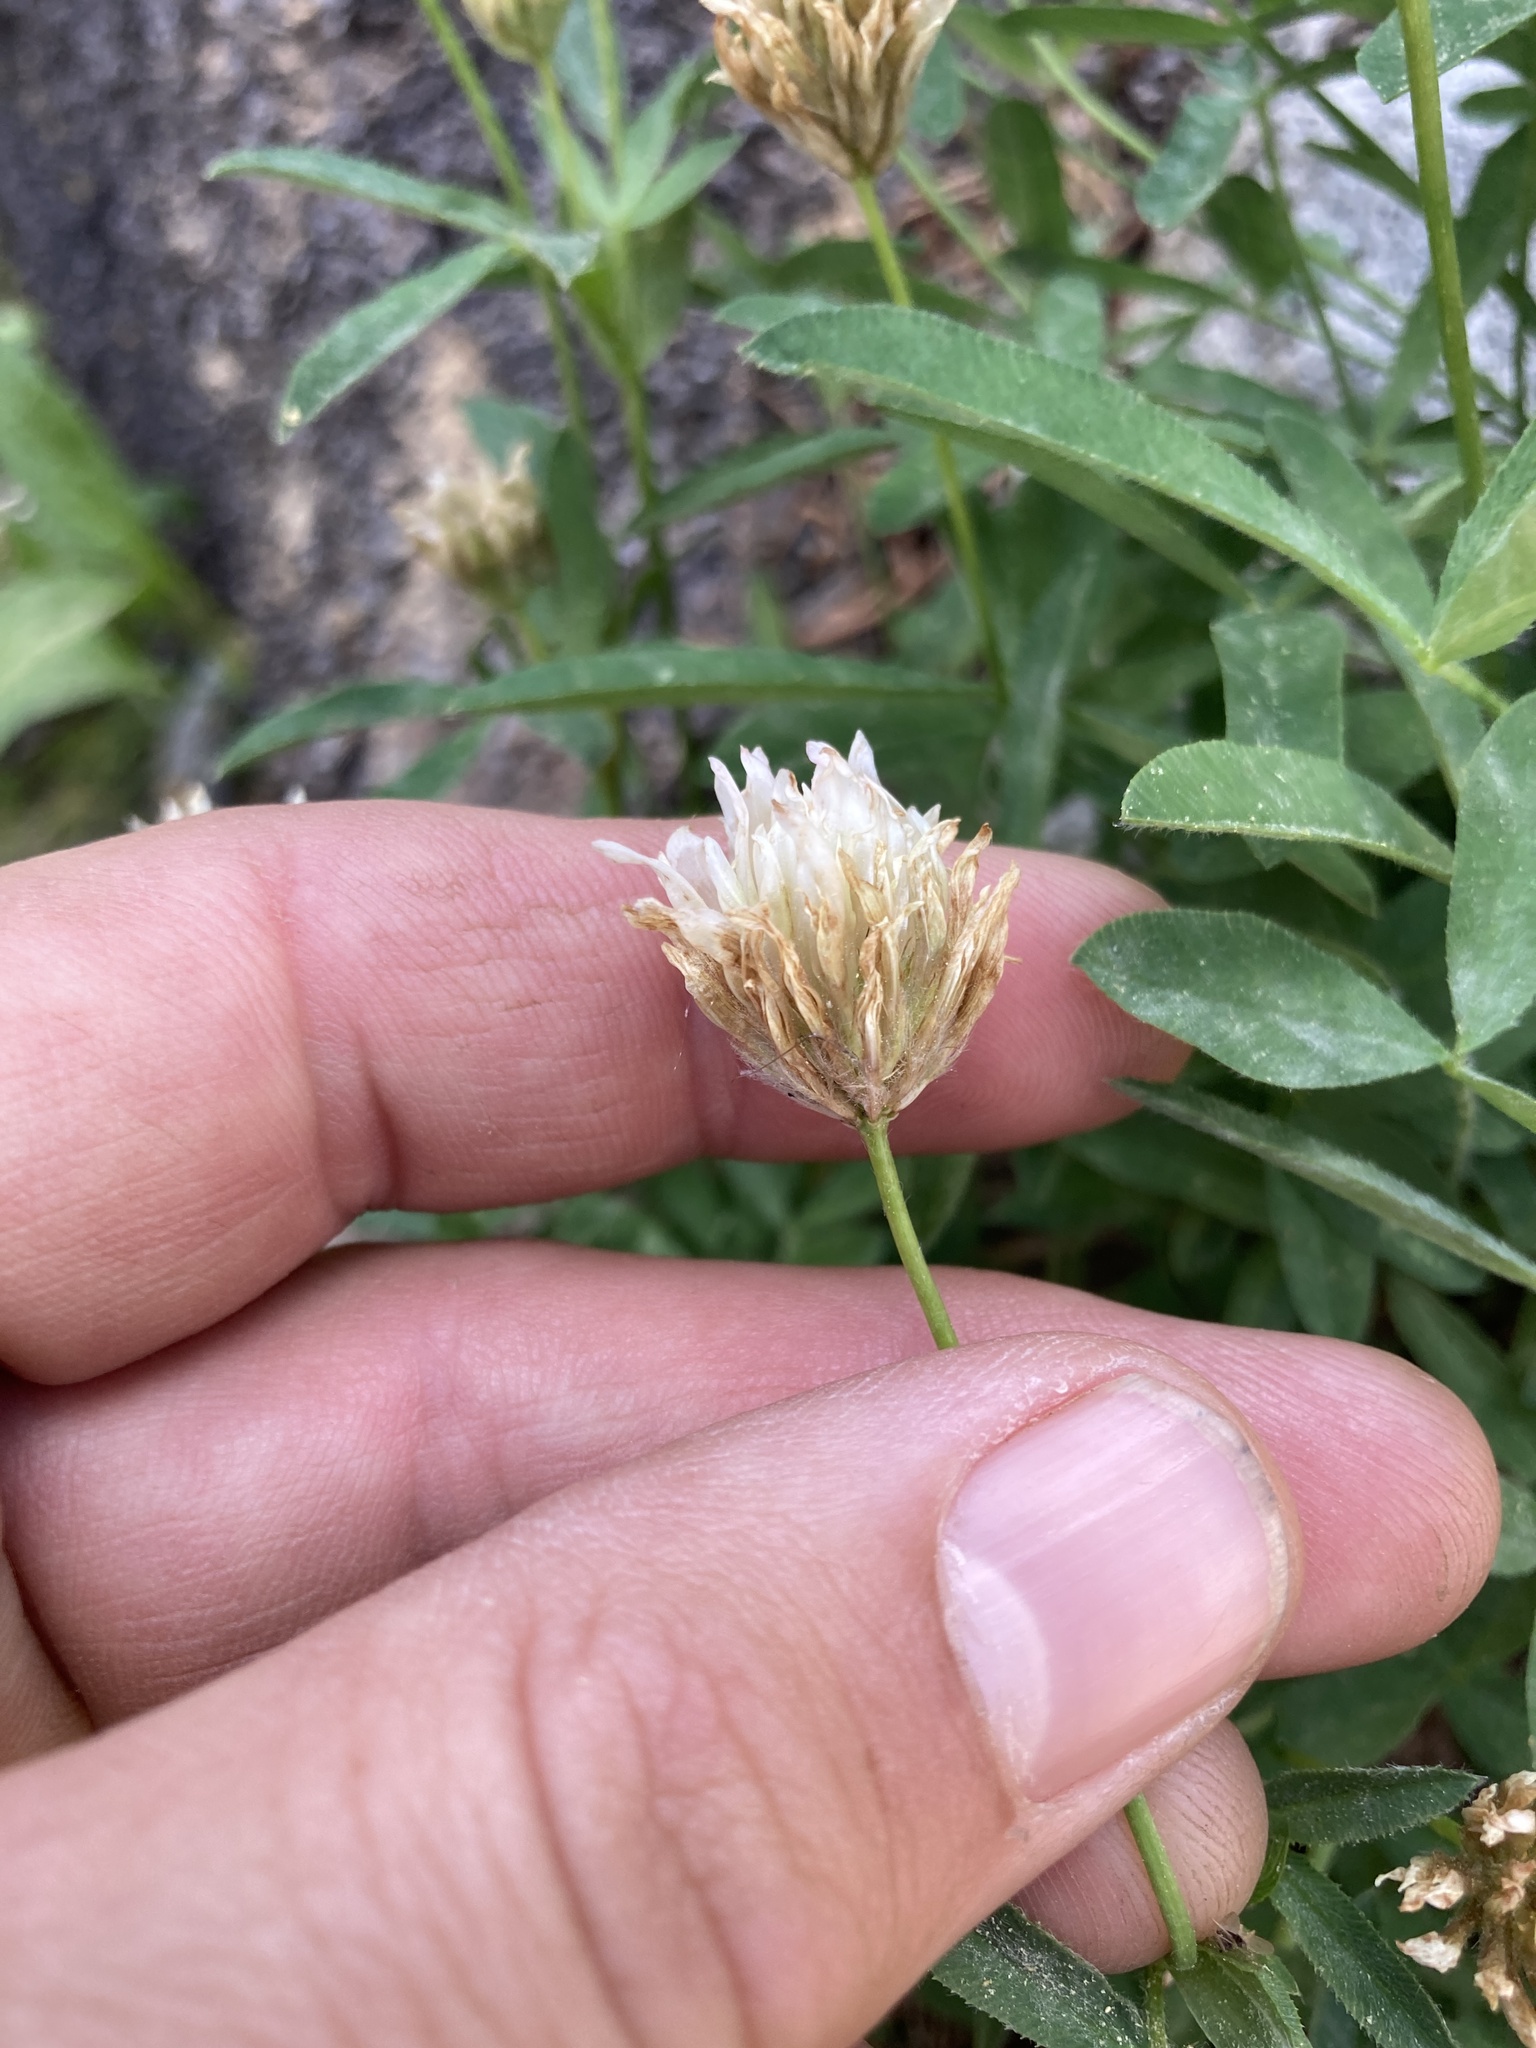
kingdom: Plantae
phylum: Tracheophyta
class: Magnoliopsida
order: Fabales
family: Fabaceae
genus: Trifolium
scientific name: Trifolium longipes
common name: Long-stalk clover
